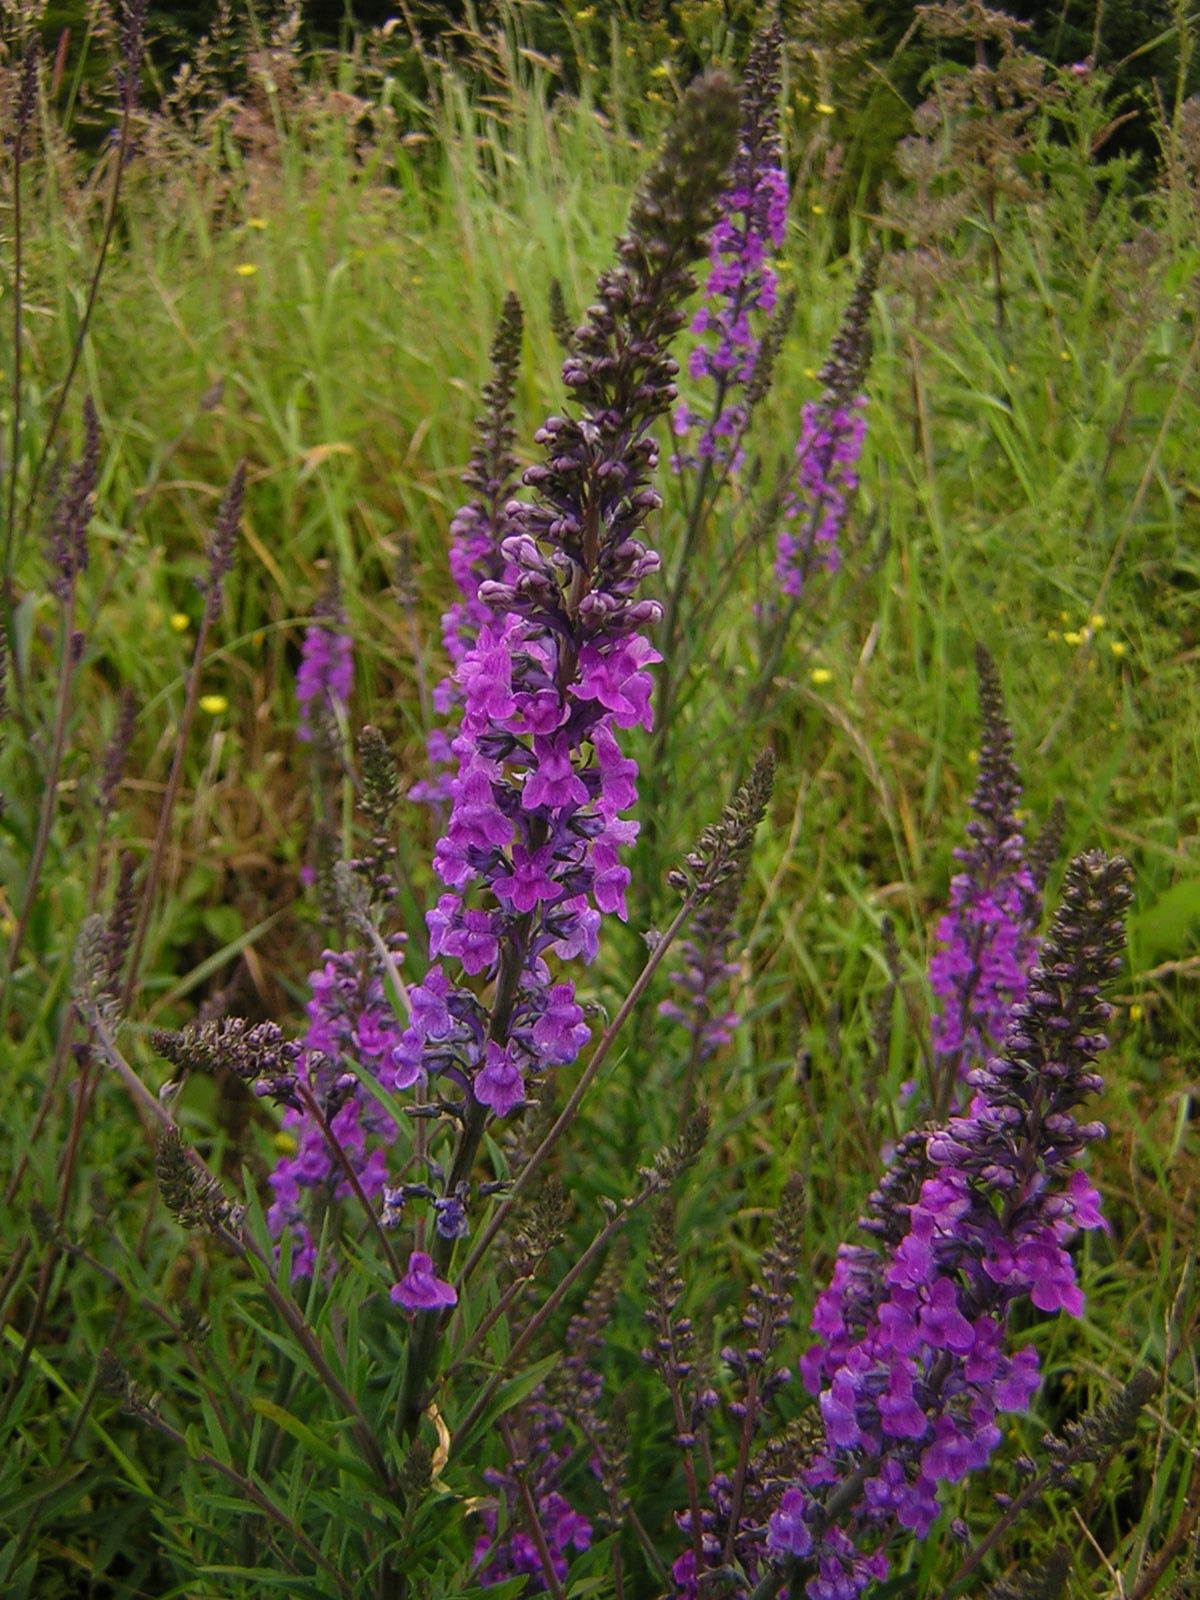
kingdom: Plantae
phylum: Tracheophyta
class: Magnoliopsida
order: Lamiales
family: Plantaginaceae
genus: Linaria
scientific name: Linaria purpurea
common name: Purple toadflax
